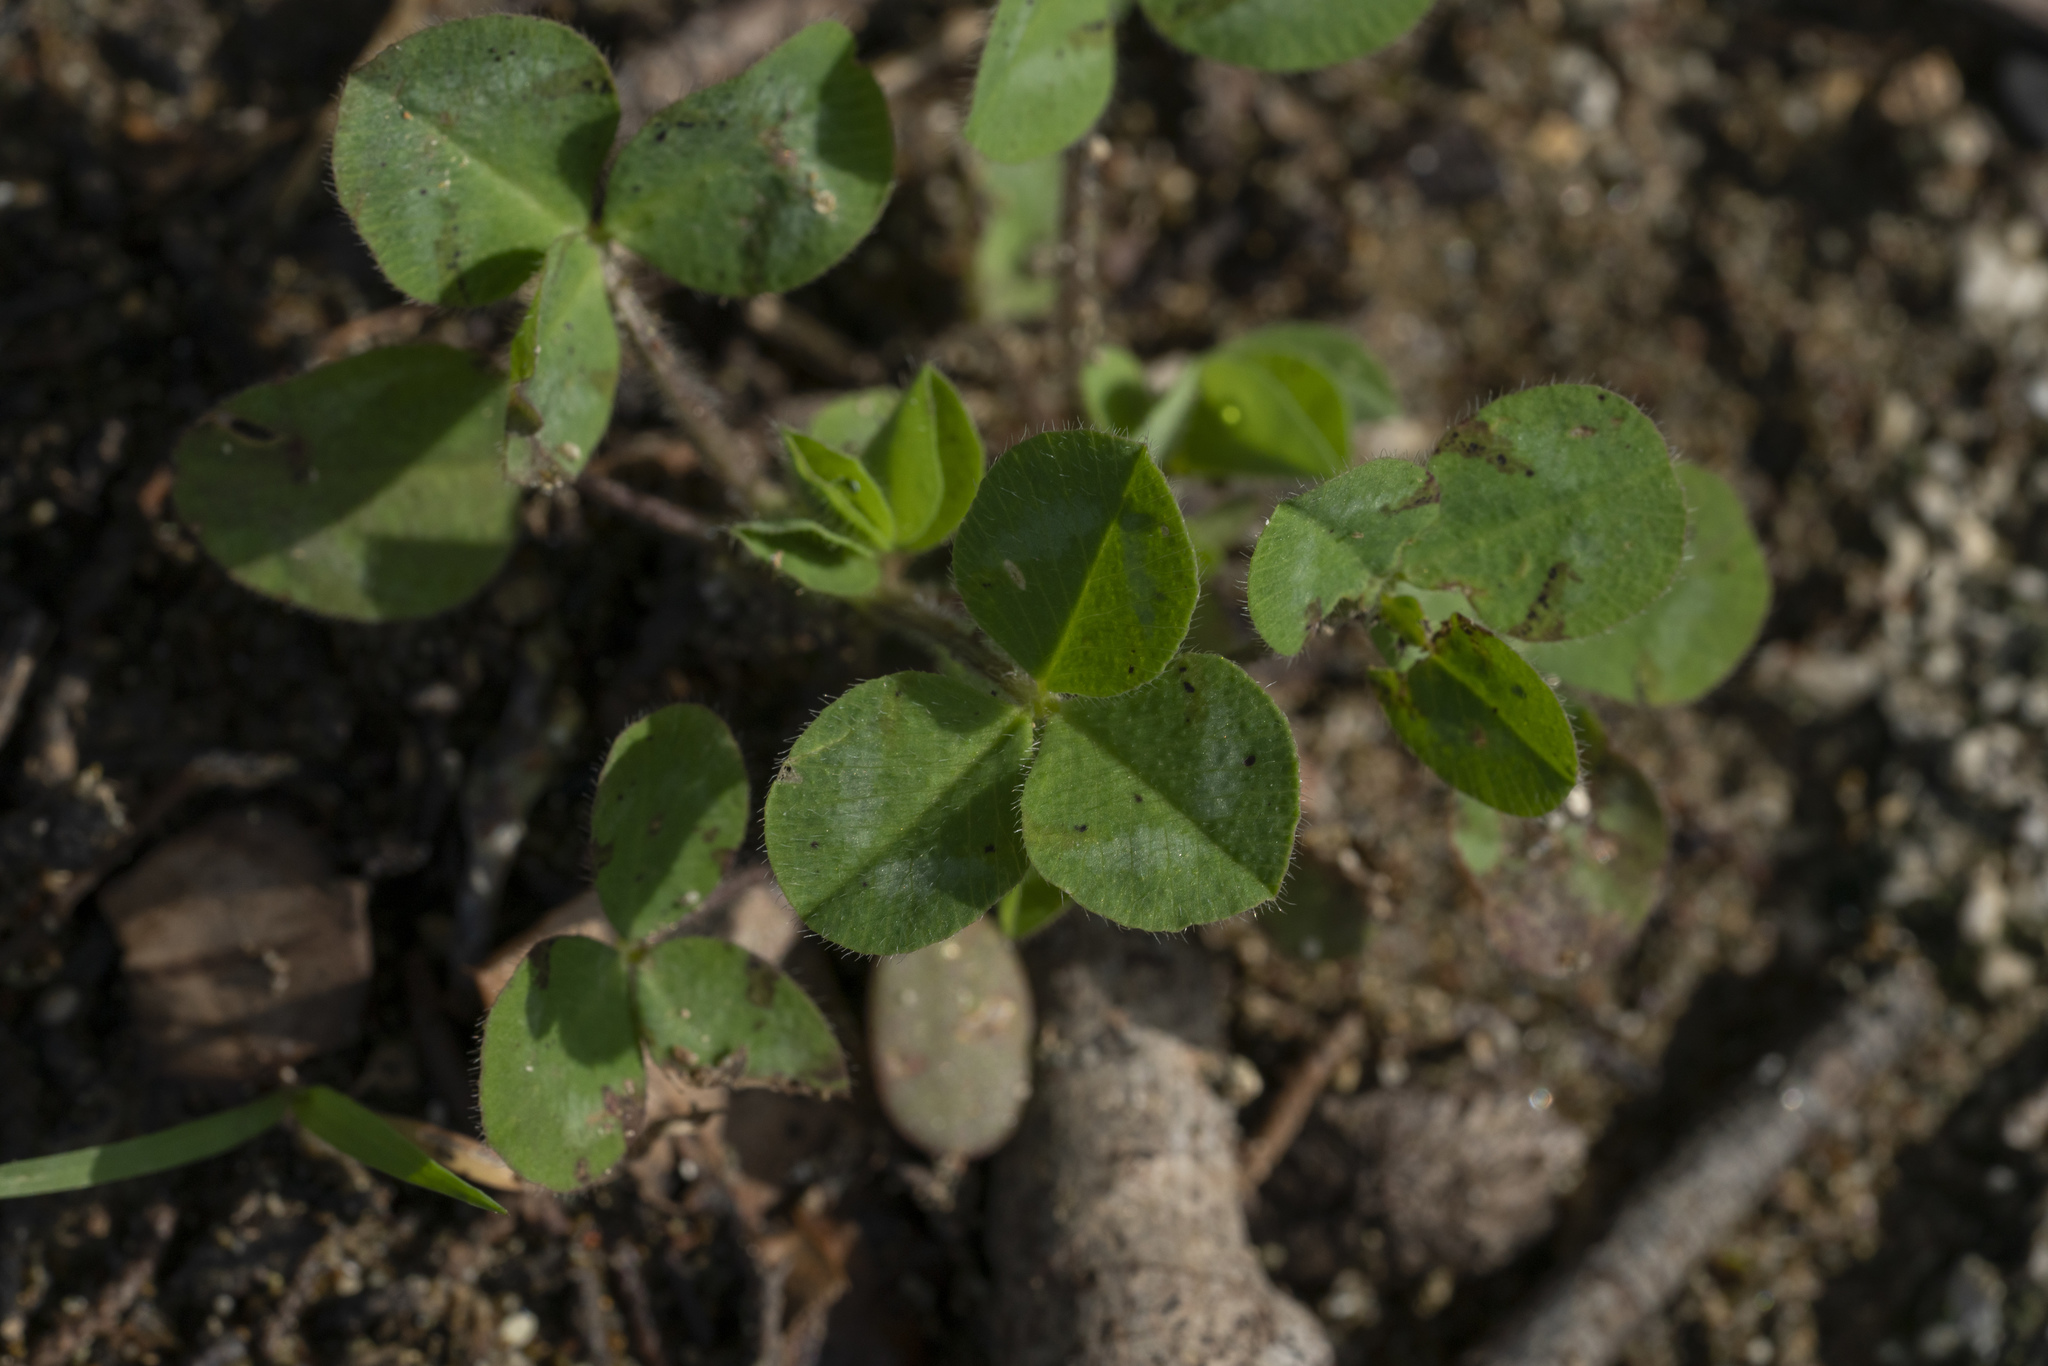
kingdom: Plantae
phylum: Tracheophyta
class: Magnoliopsida
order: Fabales
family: Fabaceae
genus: Trifolium
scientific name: Trifolium
